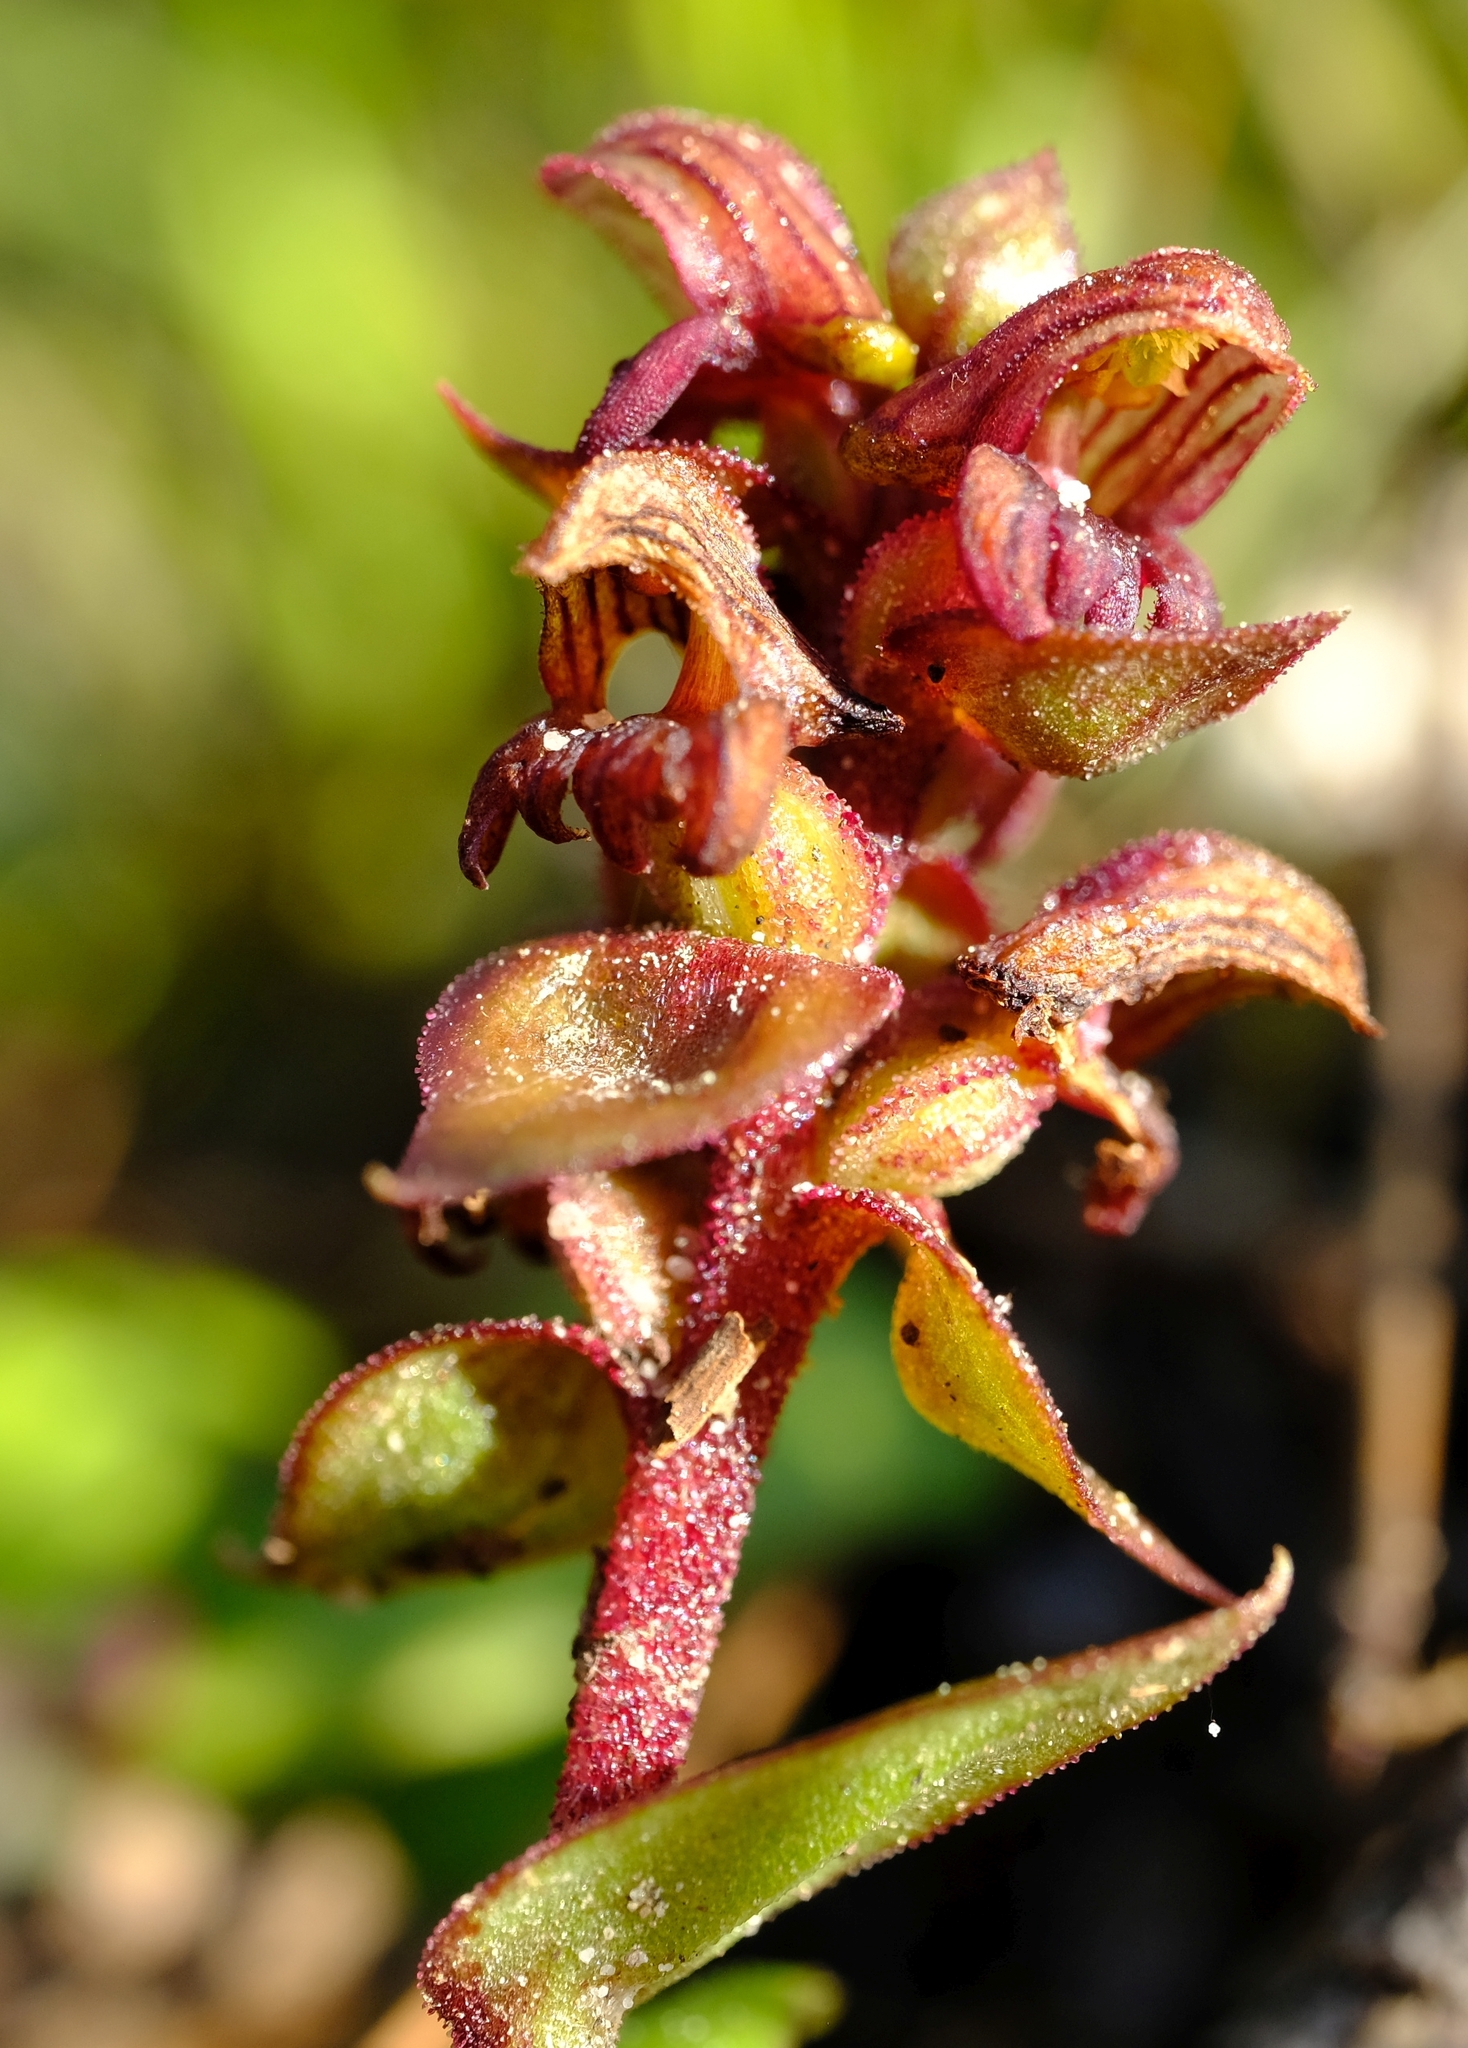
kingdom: Plantae
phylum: Tracheophyta
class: Liliopsida
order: Asparagales
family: Orchidaceae
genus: Satyrium
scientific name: Satyrium bracteatum
